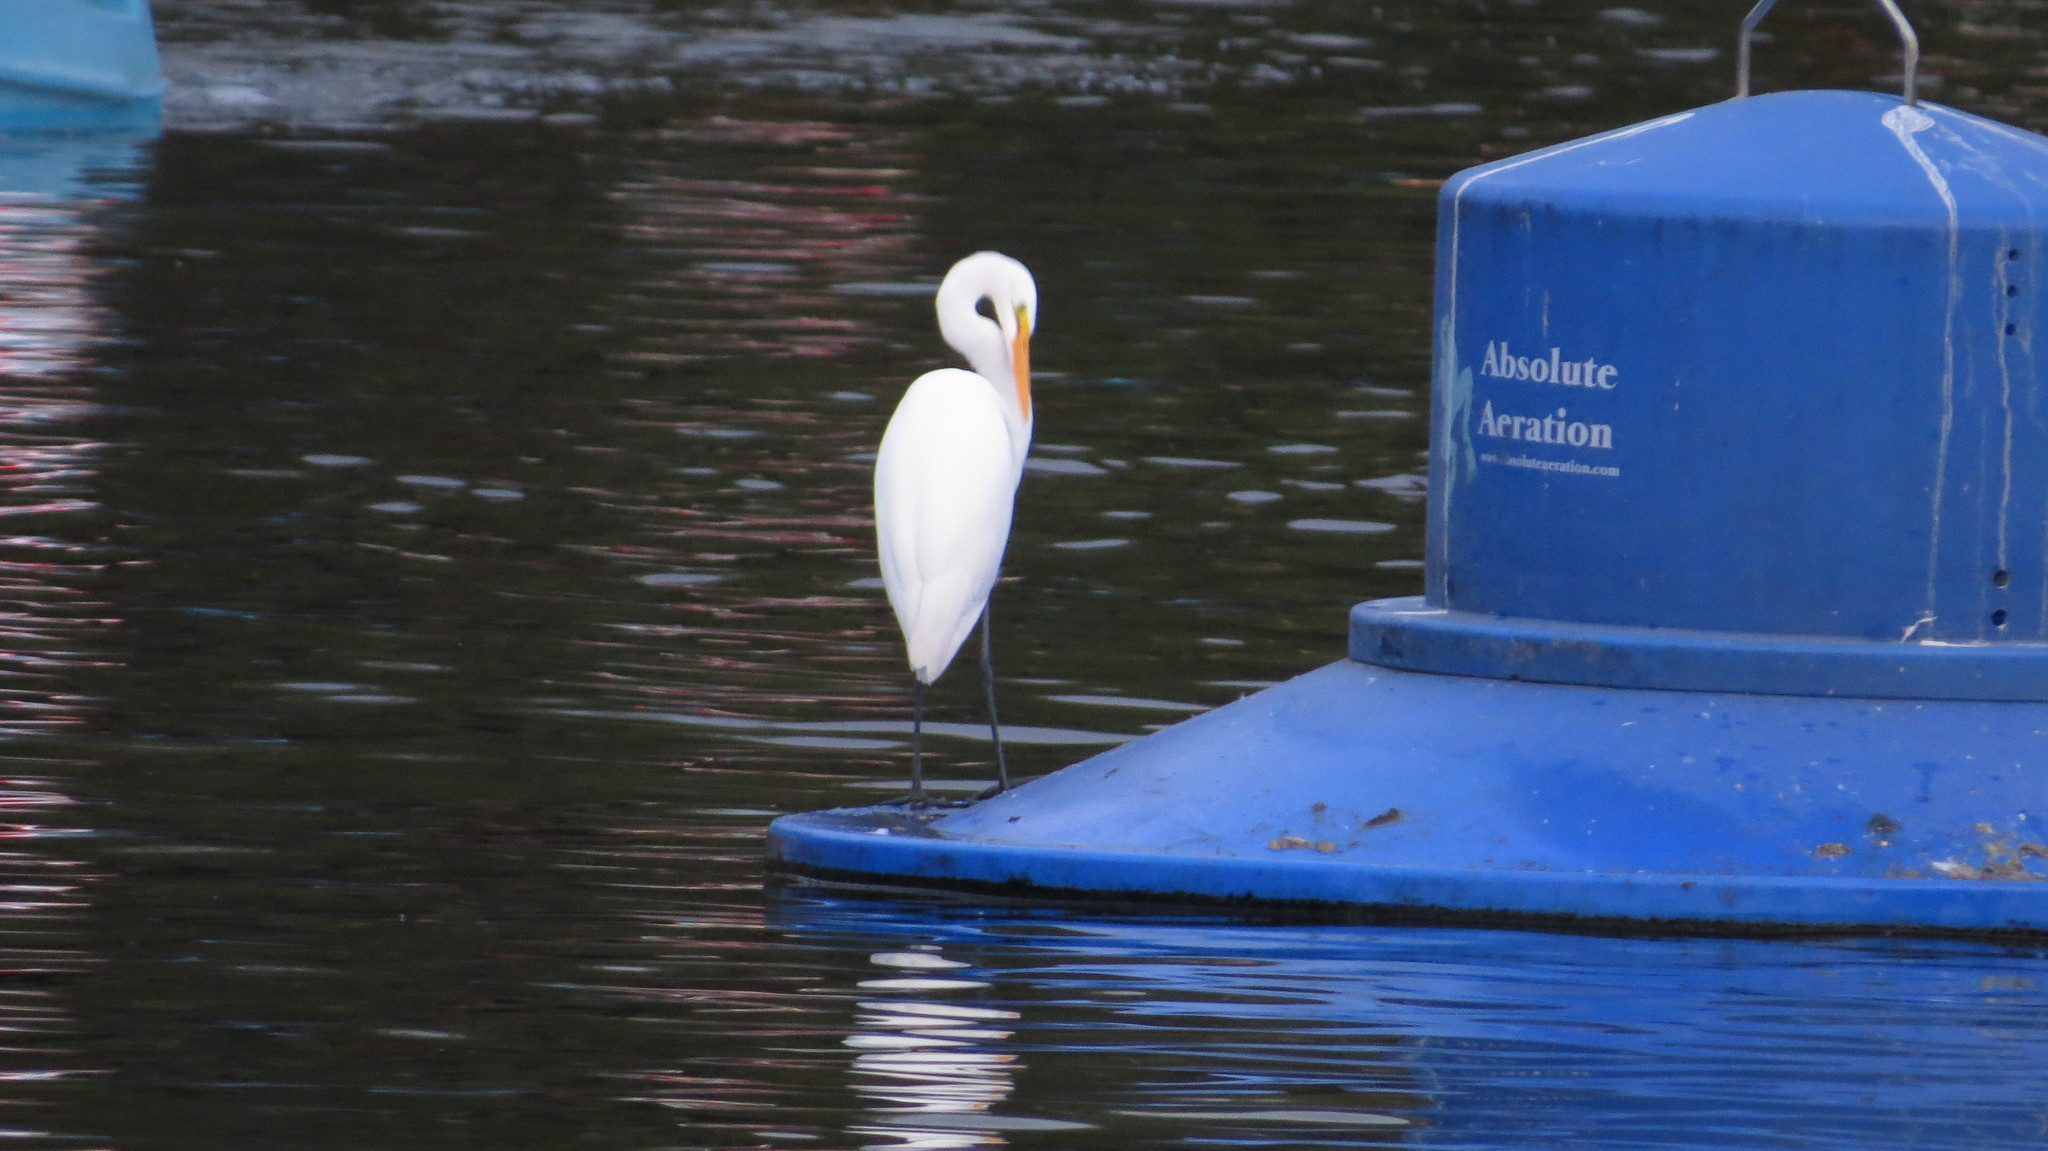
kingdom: Animalia
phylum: Chordata
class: Aves
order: Pelecaniformes
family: Ardeidae
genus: Ardea
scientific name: Ardea alba
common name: Great egret
